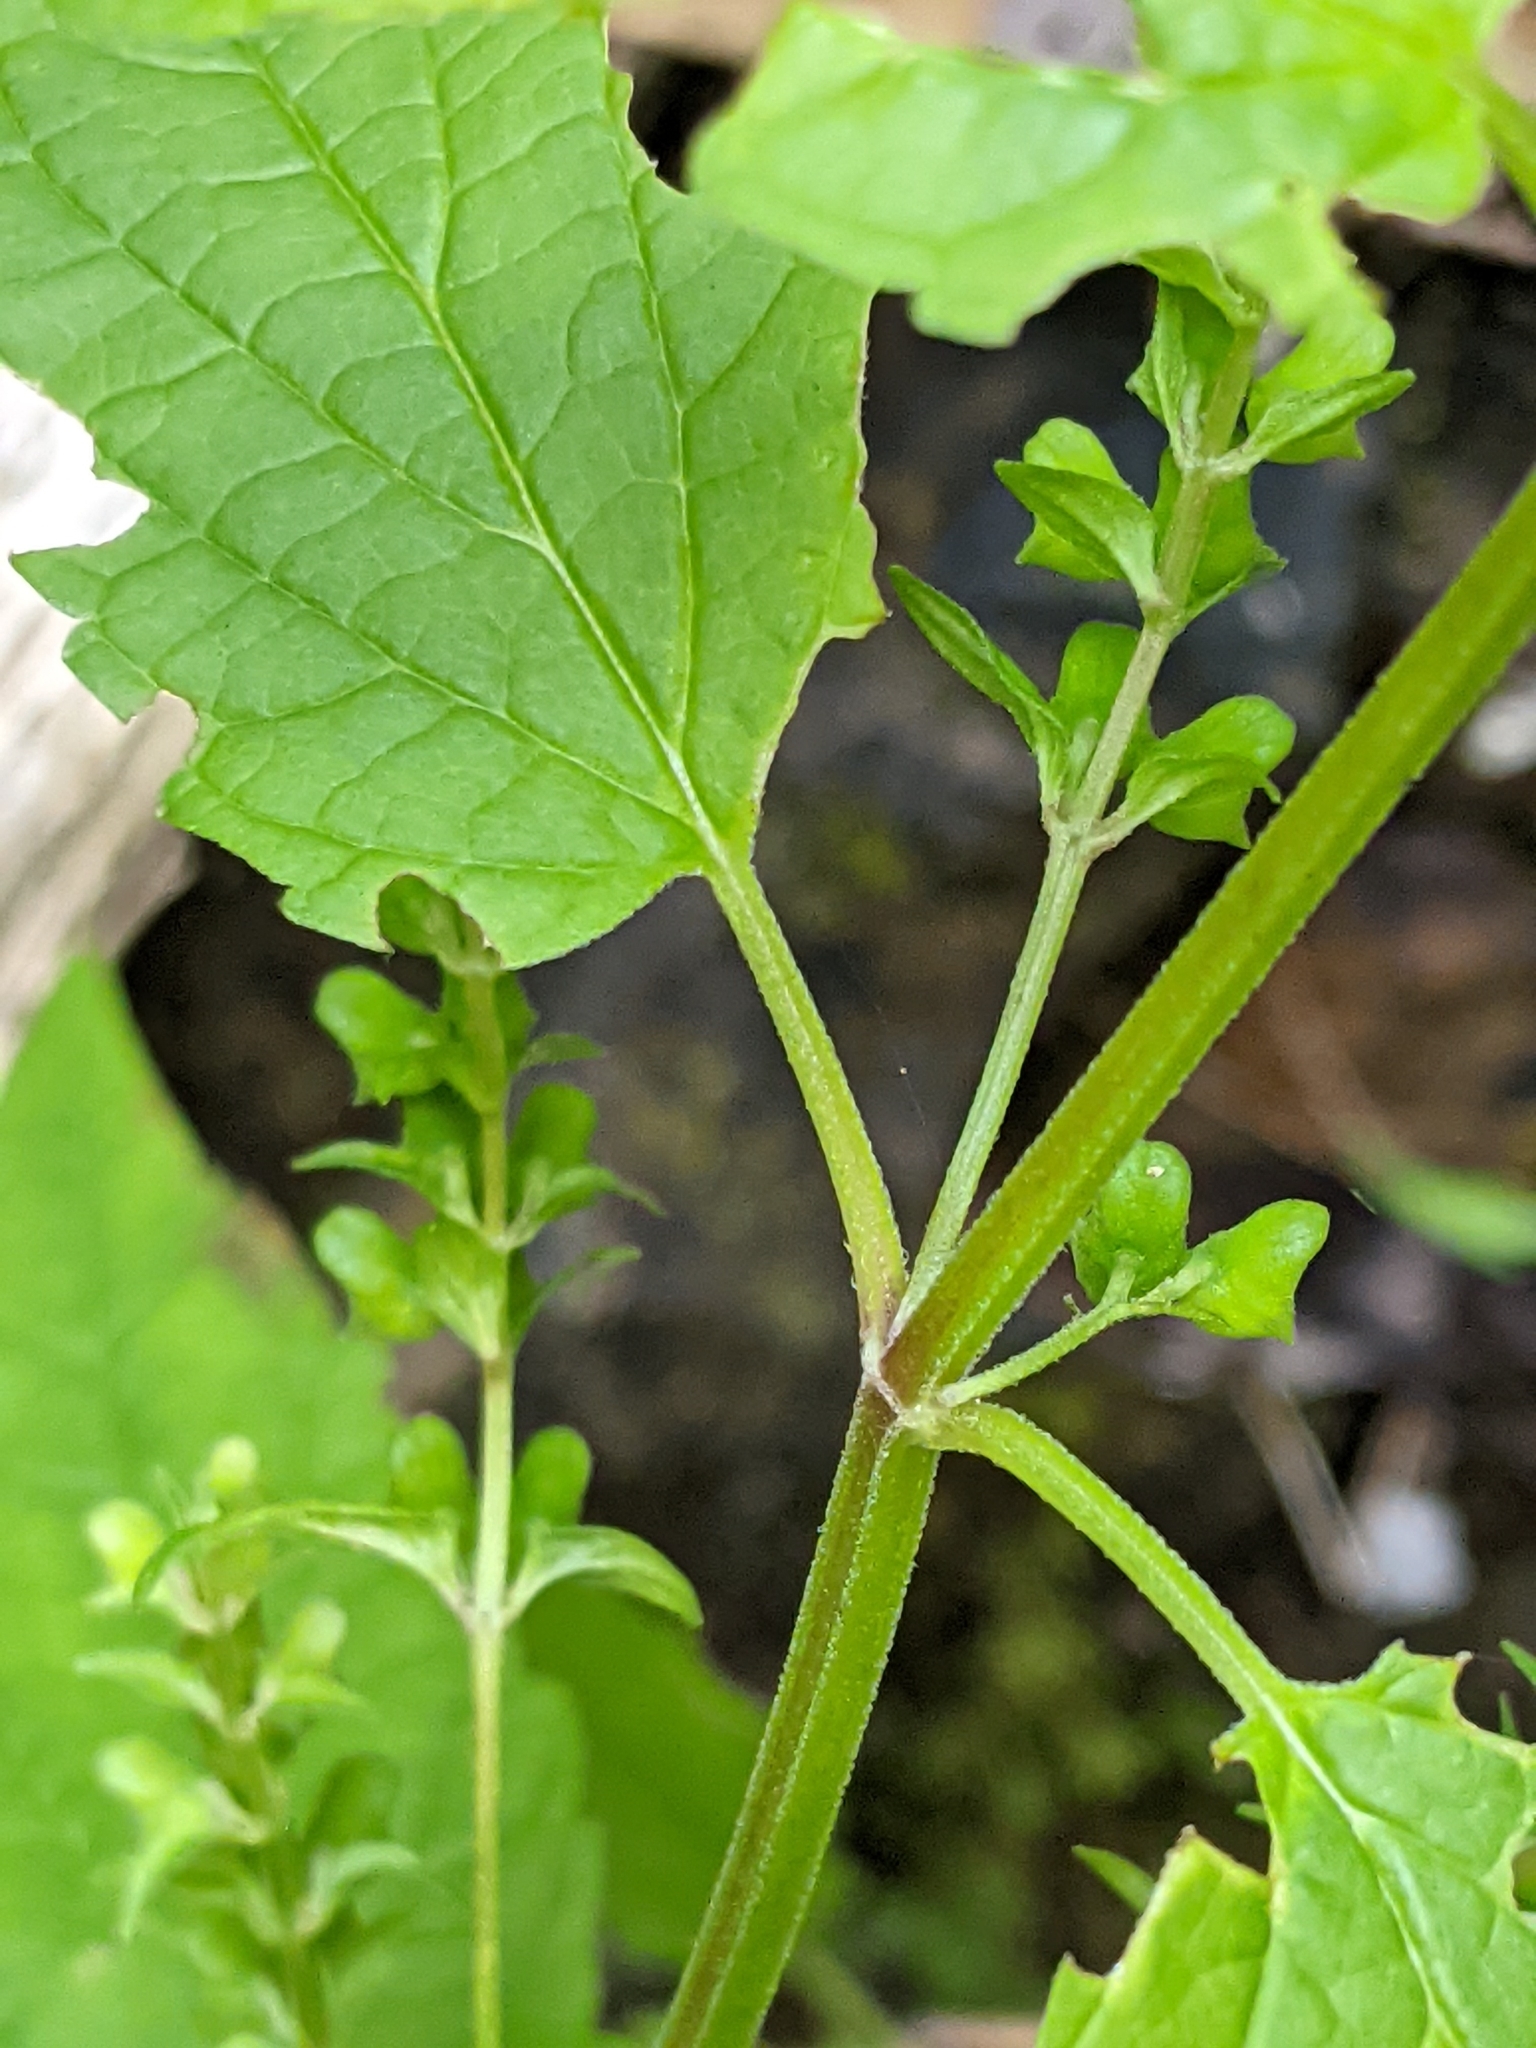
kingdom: Plantae
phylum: Tracheophyta
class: Magnoliopsida
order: Lamiales
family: Lamiaceae
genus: Scutellaria
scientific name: Scutellaria lateriflora
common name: Blue skullcap
